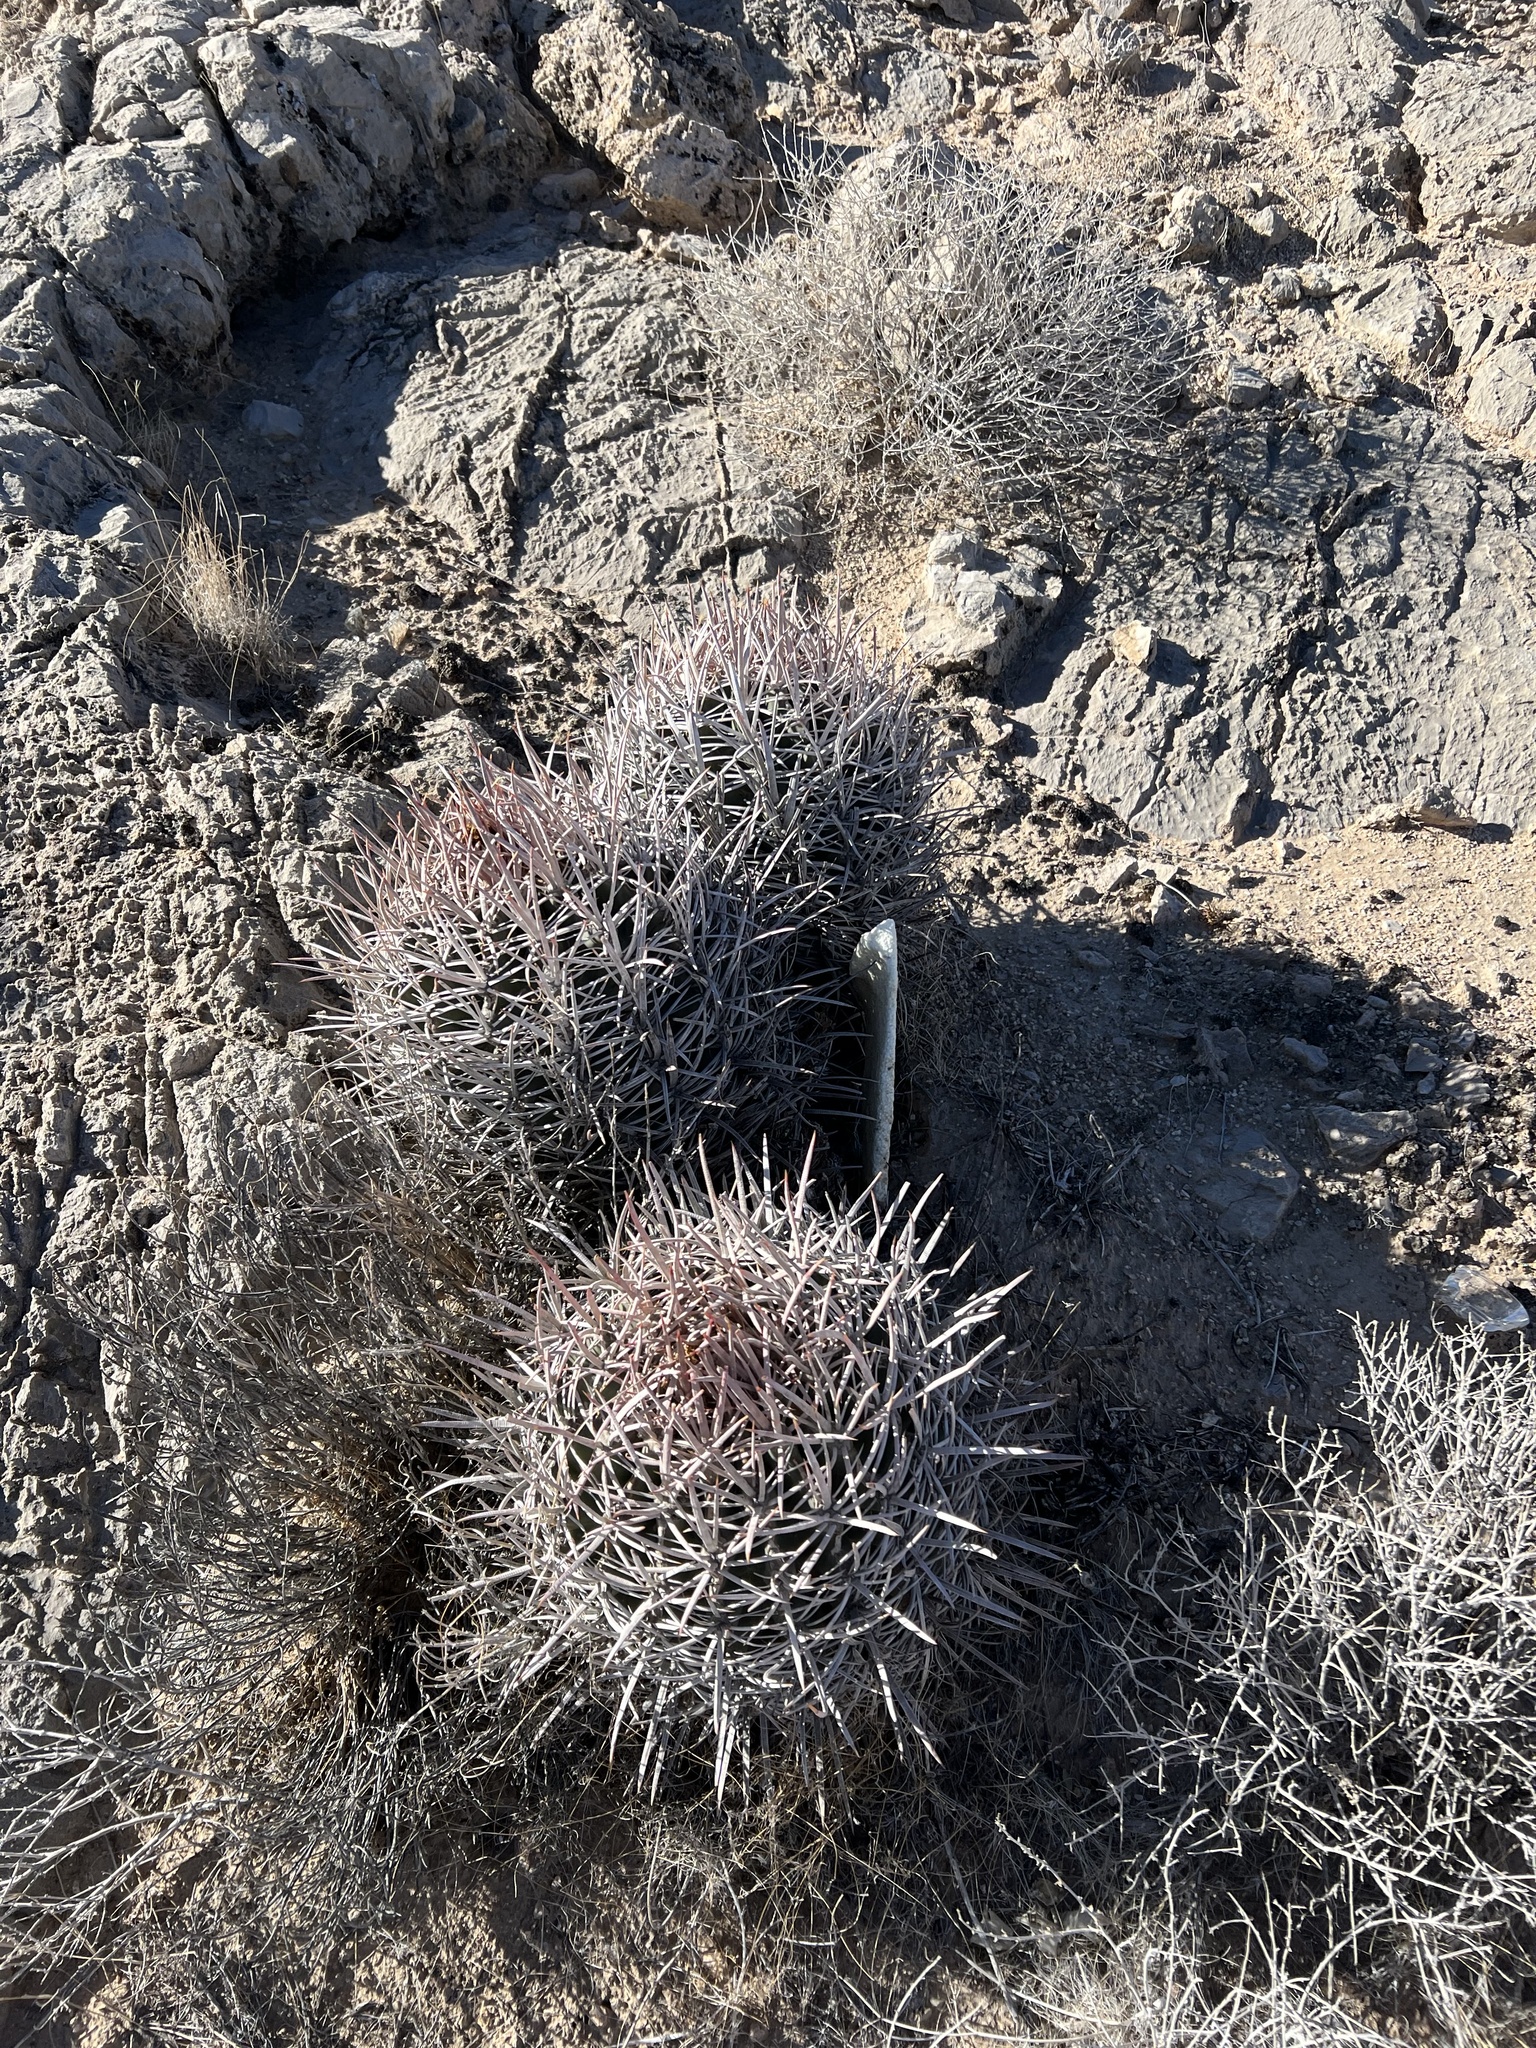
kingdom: Plantae
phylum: Tracheophyta
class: Magnoliopsida
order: Caryophyllales
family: Cactaceae
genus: Echinocactus
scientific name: Echinocactus polycephalus
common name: Cottontop cactus
